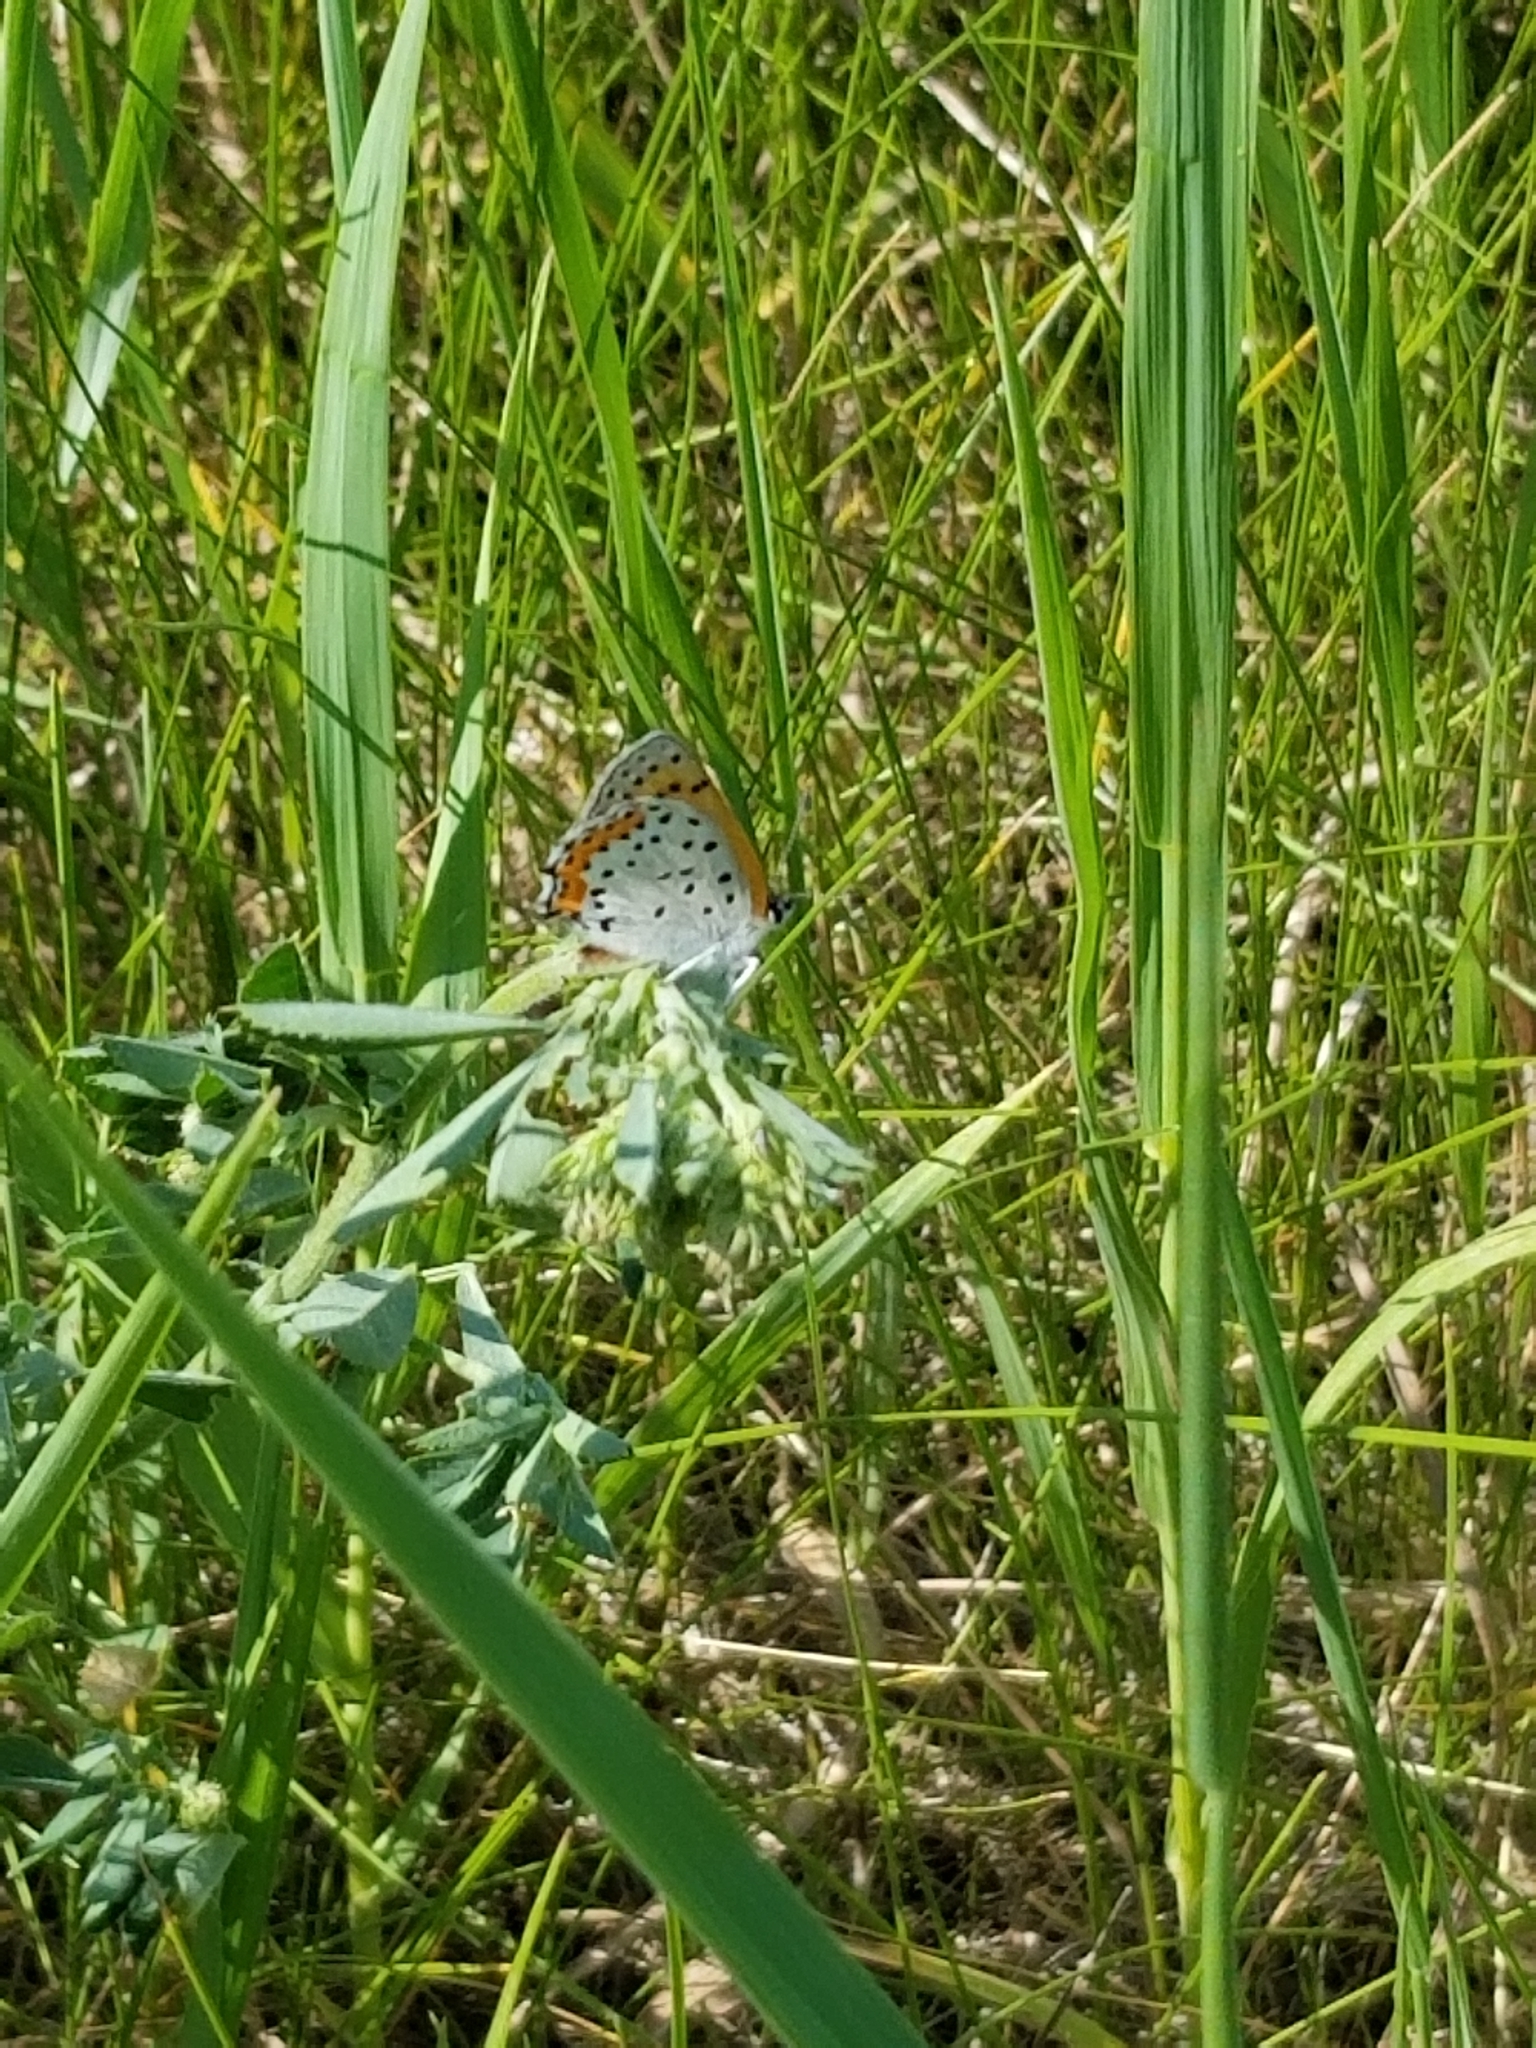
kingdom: Animalia
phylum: Arthropoda
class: Insecta
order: Lepidoptera
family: Lycaenidae
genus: Tharsalea
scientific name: Tharsalea hyllus
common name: Bronze copper
